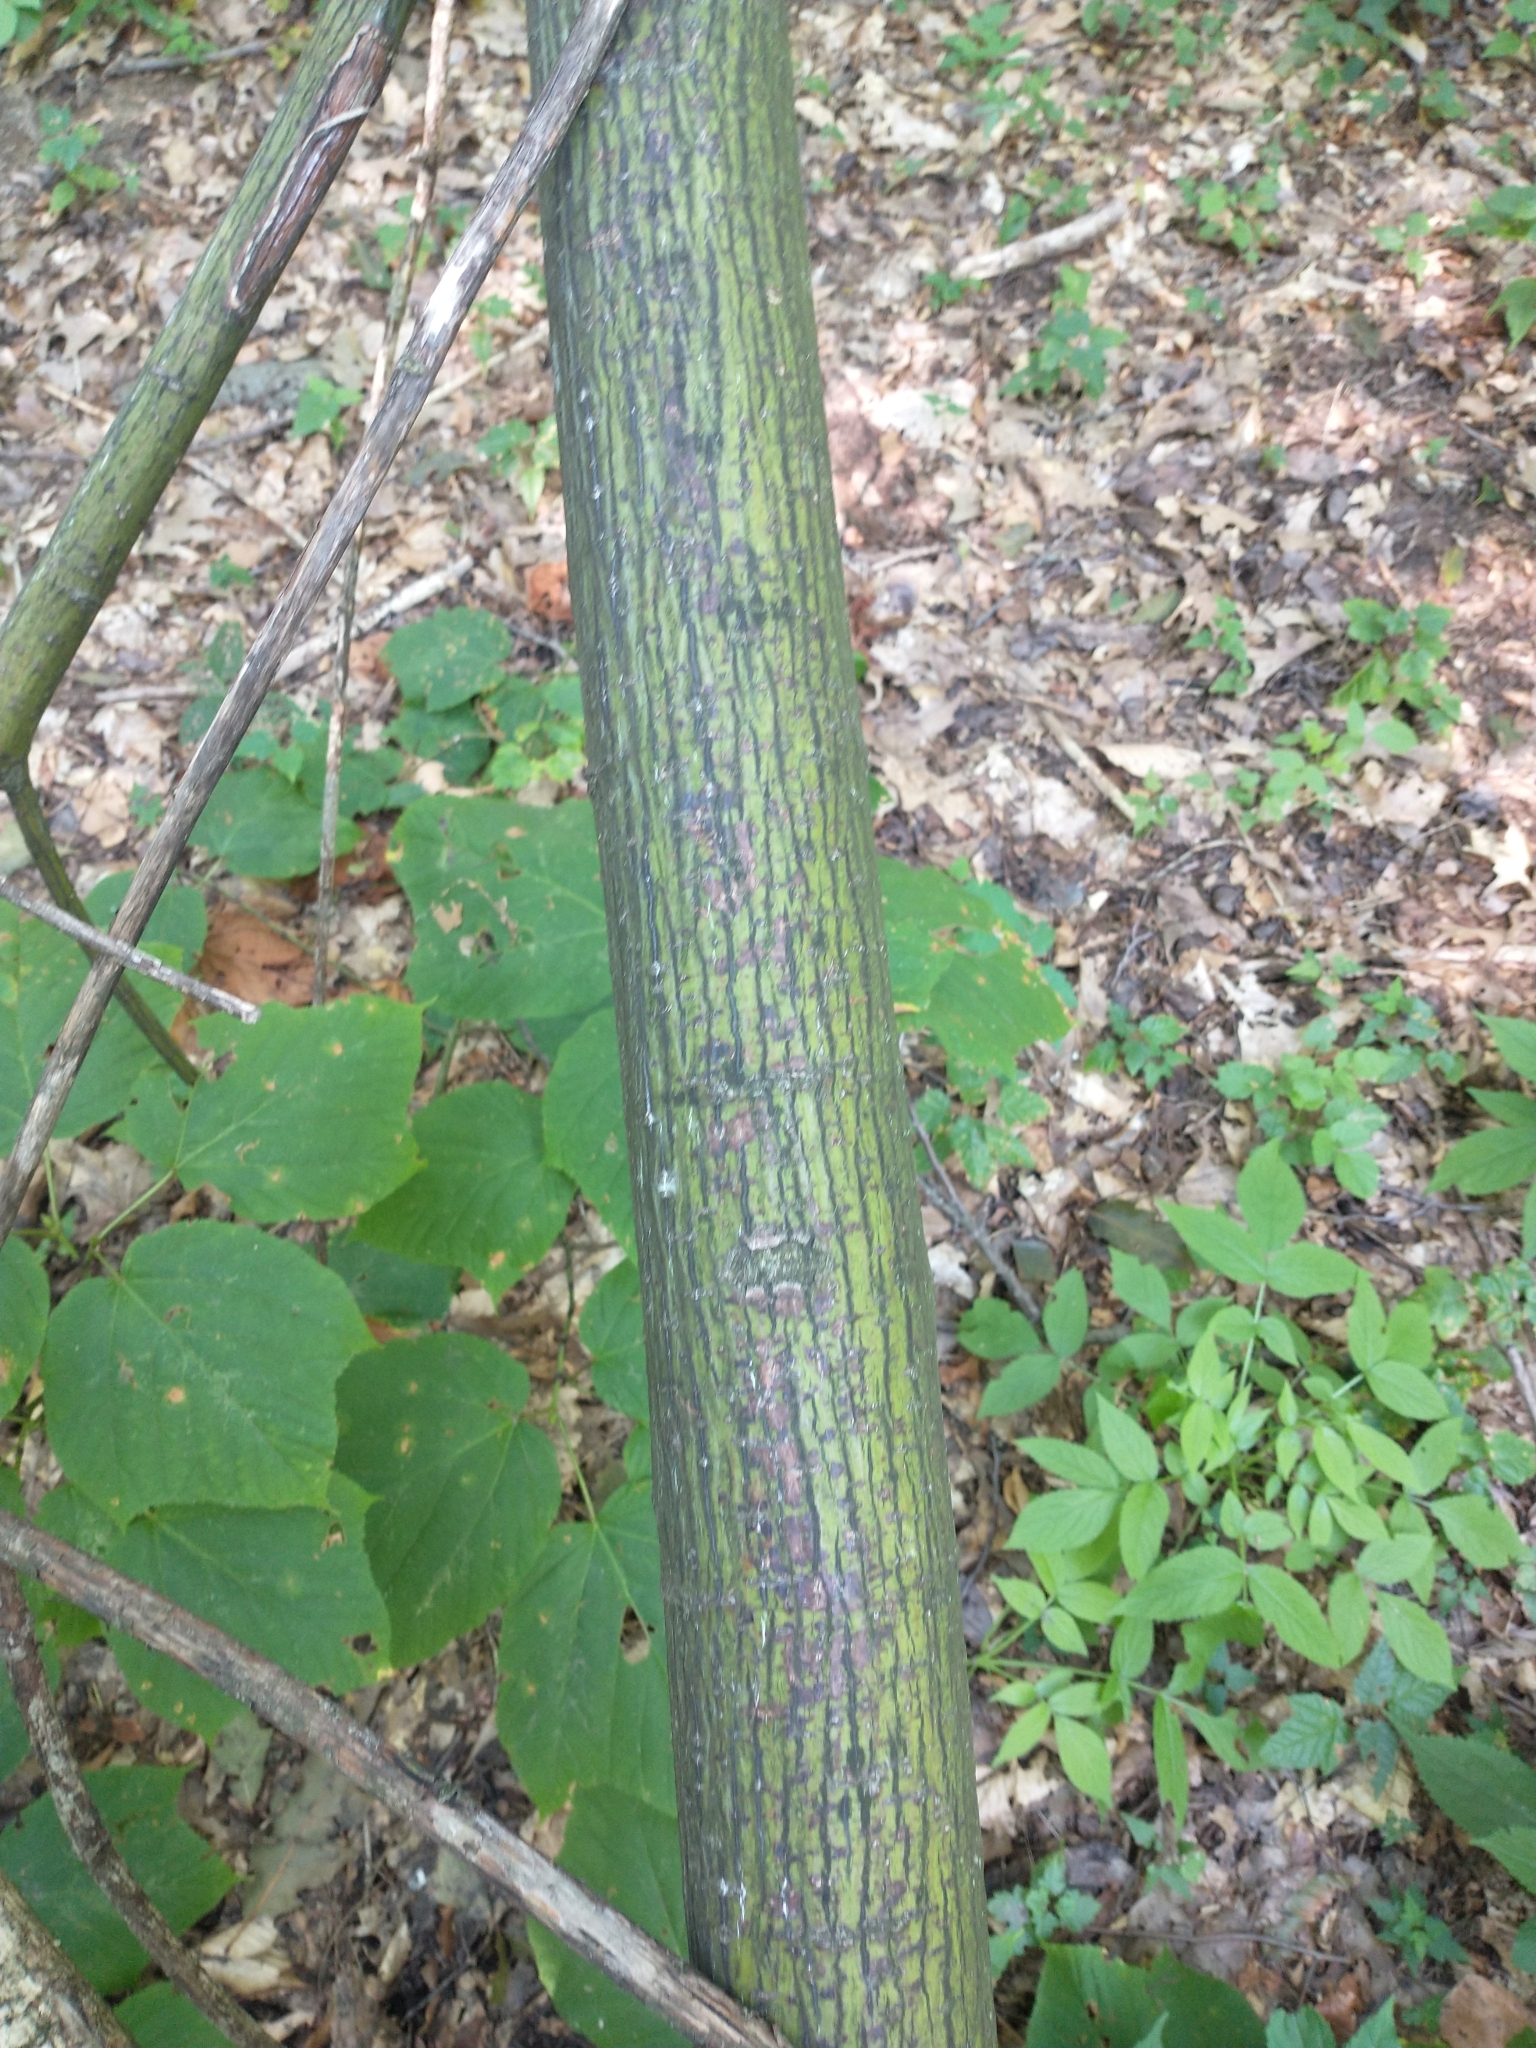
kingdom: Plantae
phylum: Tracheophyta
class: Magnoliopsida
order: Sapindales
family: Sapindaceae
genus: Acer
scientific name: Acer pensylvanicum
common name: Moosewood
